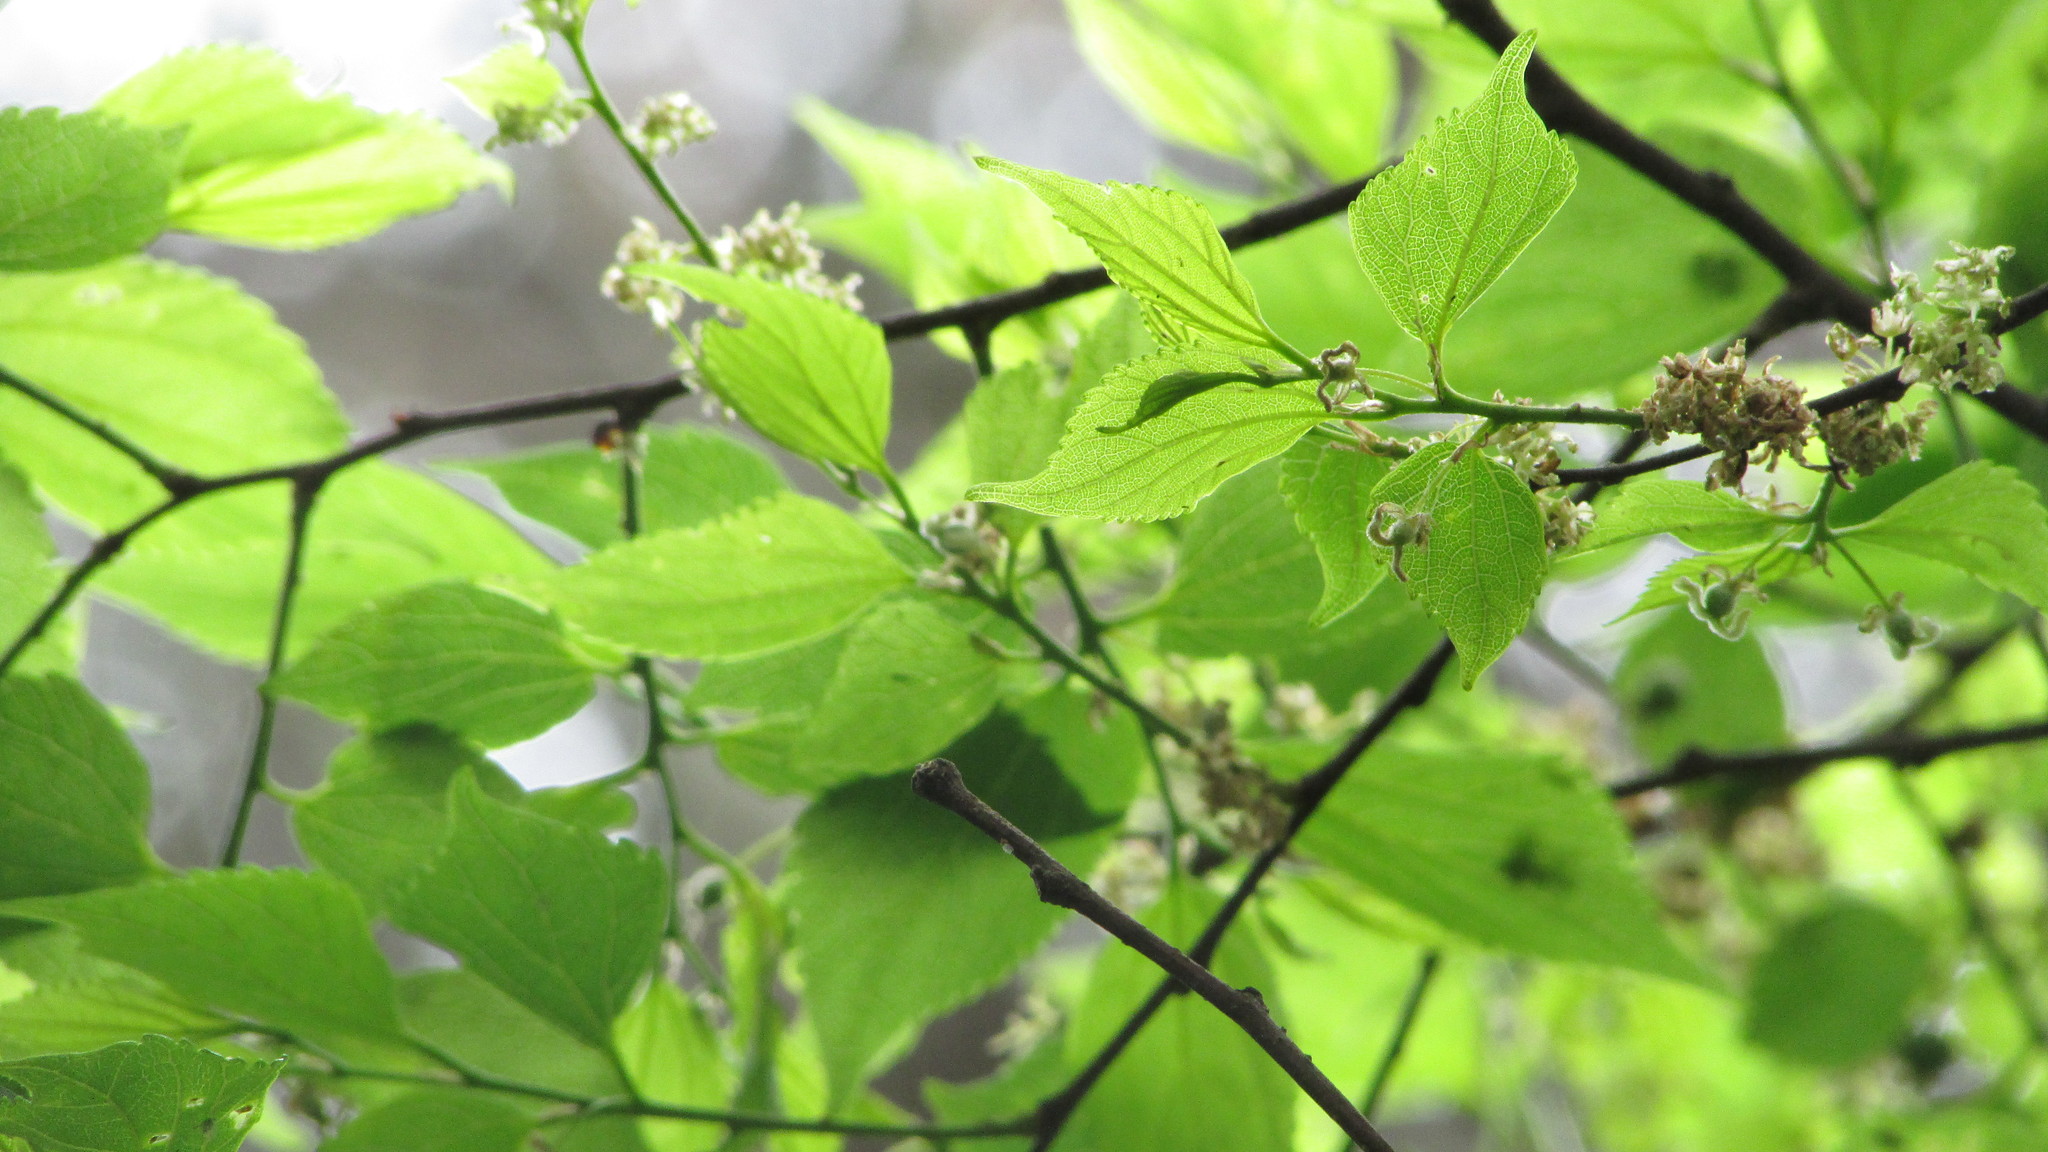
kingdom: Plantae
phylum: Tracheophyta
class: Magnoliopsida
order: Rosales
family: Cannabaceae
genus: Celtis
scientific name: Celtis africana
